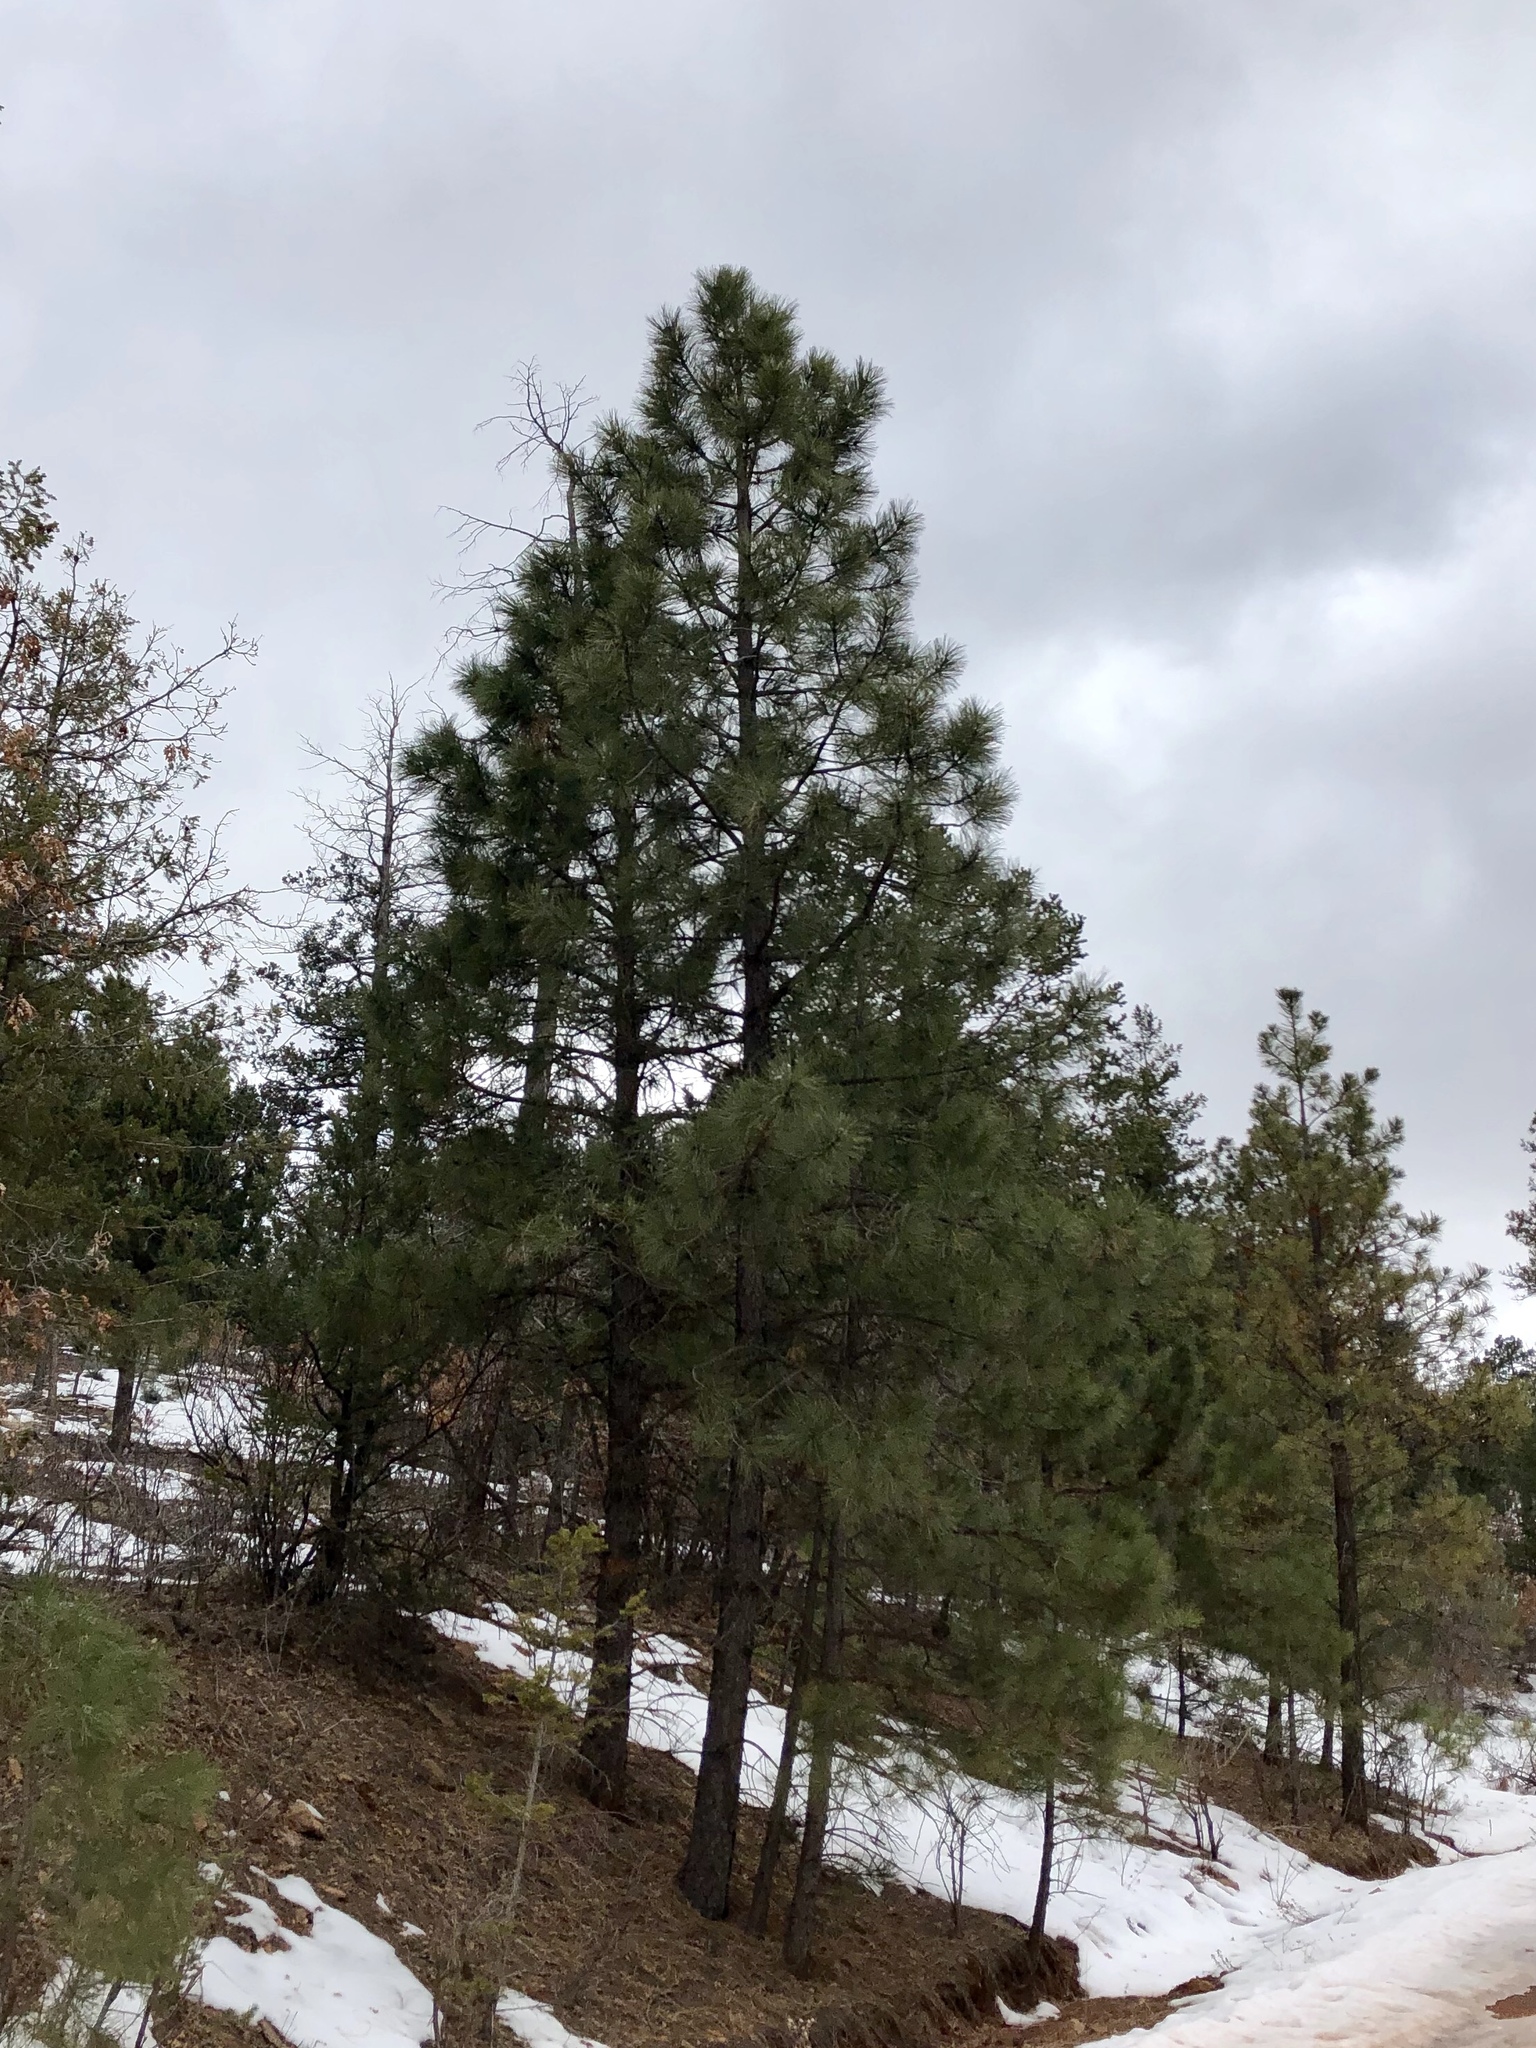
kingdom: Plantae
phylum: Tracheophyta
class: Pinopsida
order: Pinales
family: Pinaceae
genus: Pinus
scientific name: Pinus ponderosa
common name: Western yellow-pine
